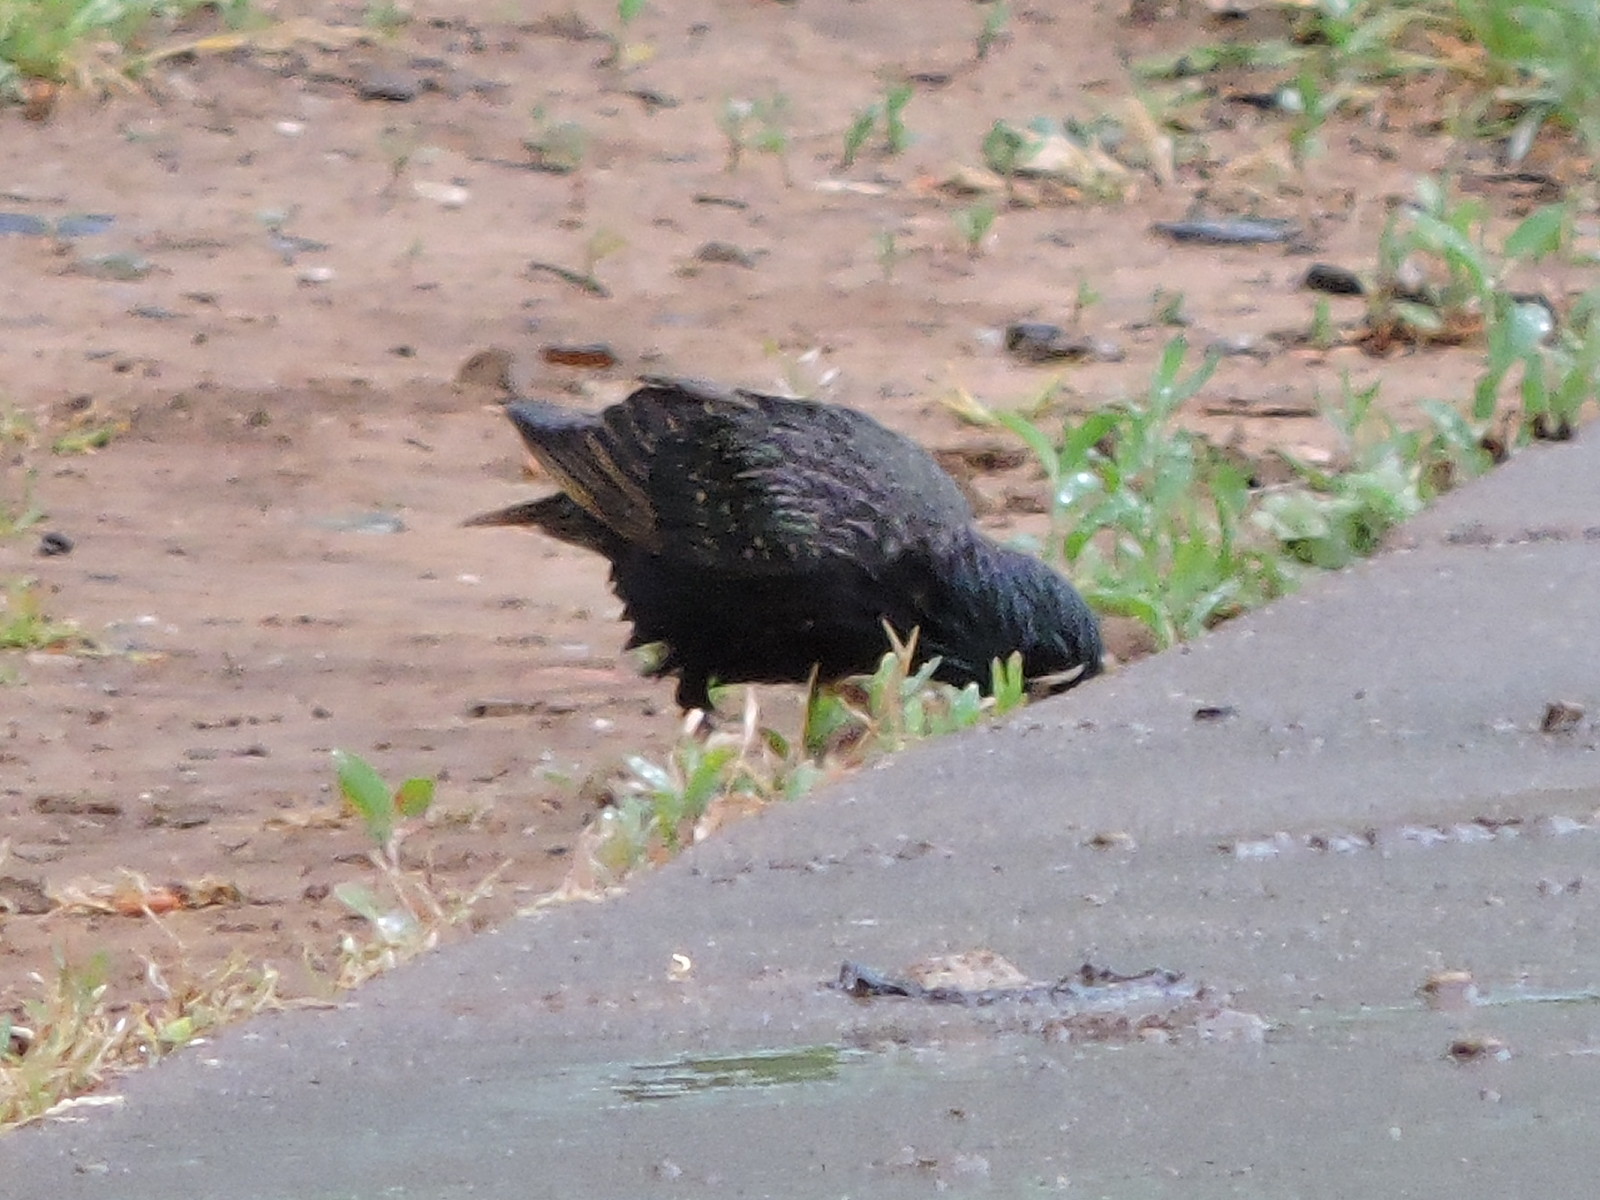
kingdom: Animalia
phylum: Chordata
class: Aves
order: Passeriformes
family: Sturnidae
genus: Sturnus
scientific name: Sturnus vulgaris
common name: Common starling
